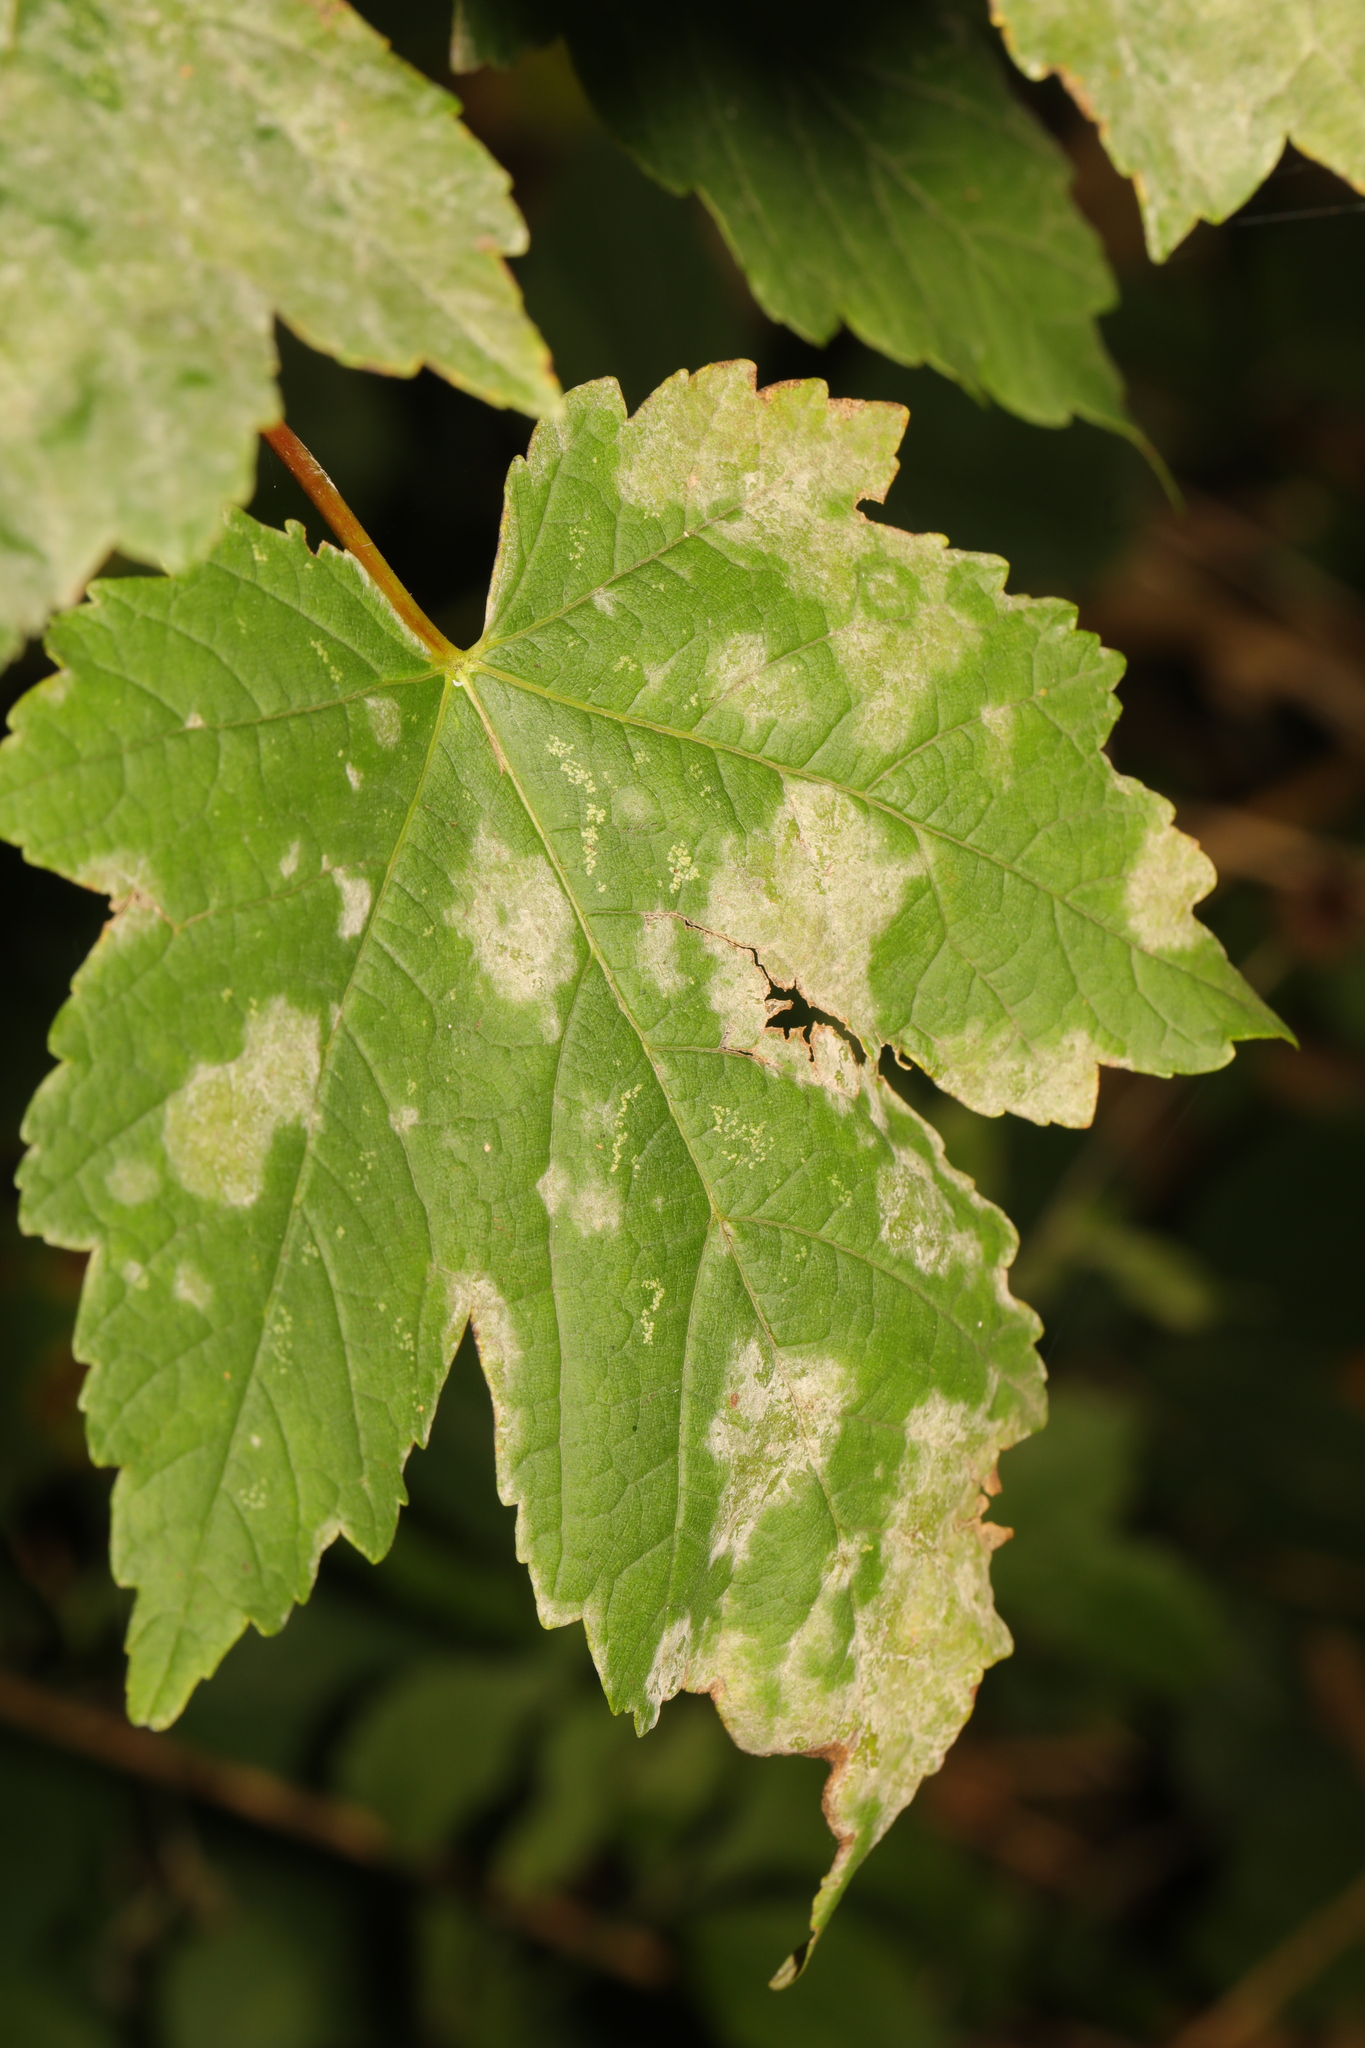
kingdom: Plantae
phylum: Tracheophyta
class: Magnoliopsida
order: Sapindales
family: Sapindaceae
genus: Acer
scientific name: Acer pseudoplatanus
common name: Sycamore
